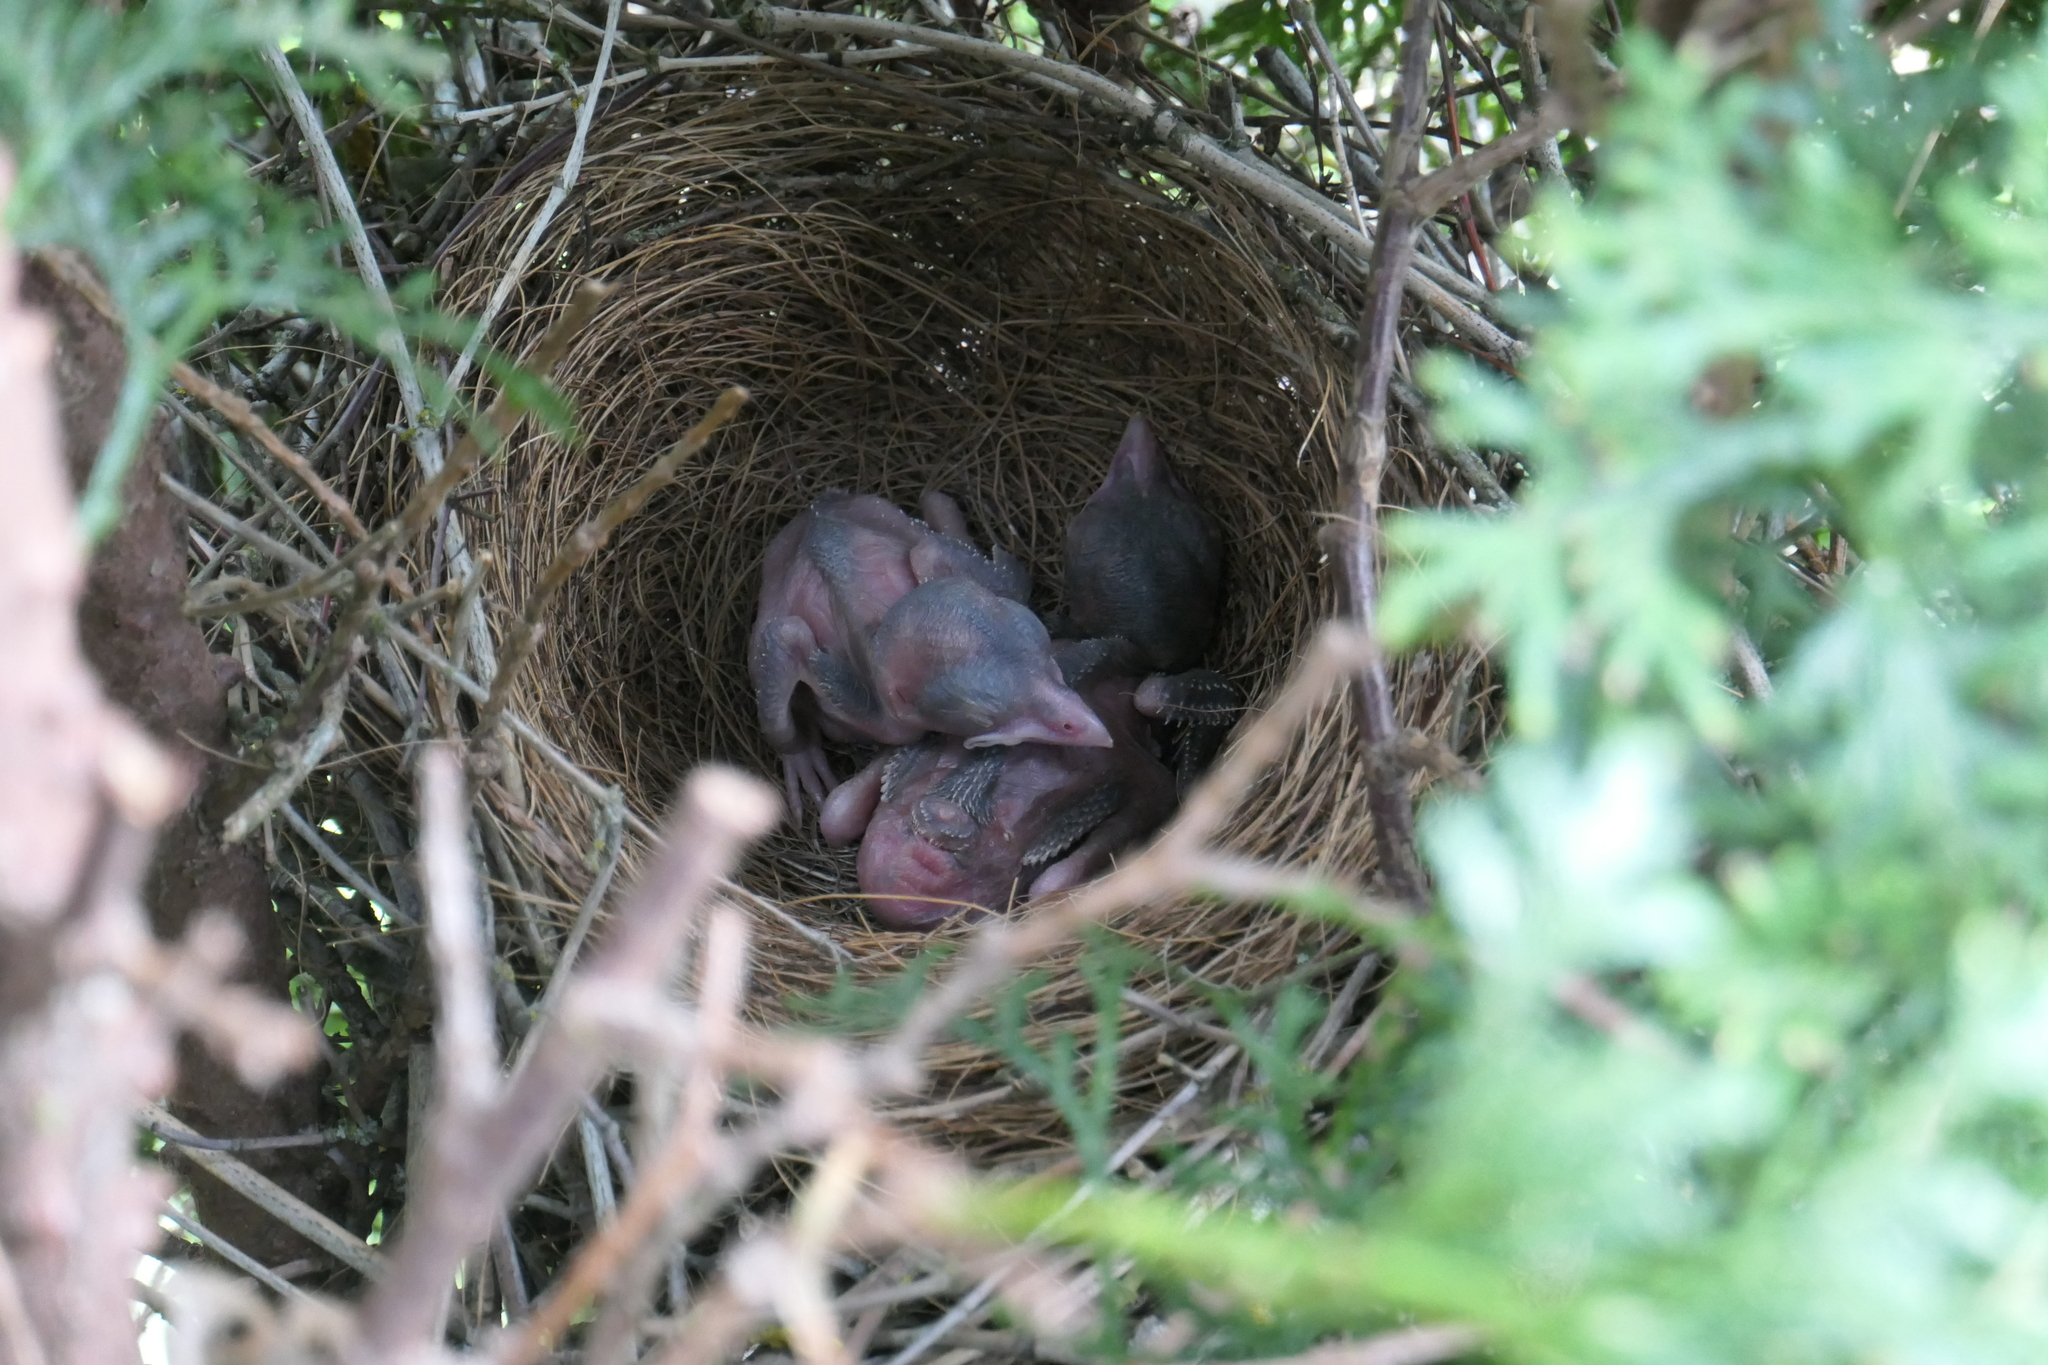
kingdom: Animalia
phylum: Chordata
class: Aves
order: Passeriformes
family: Corvidae
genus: Aphelocoma
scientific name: Aphelocoma californica
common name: California scrub-jay
